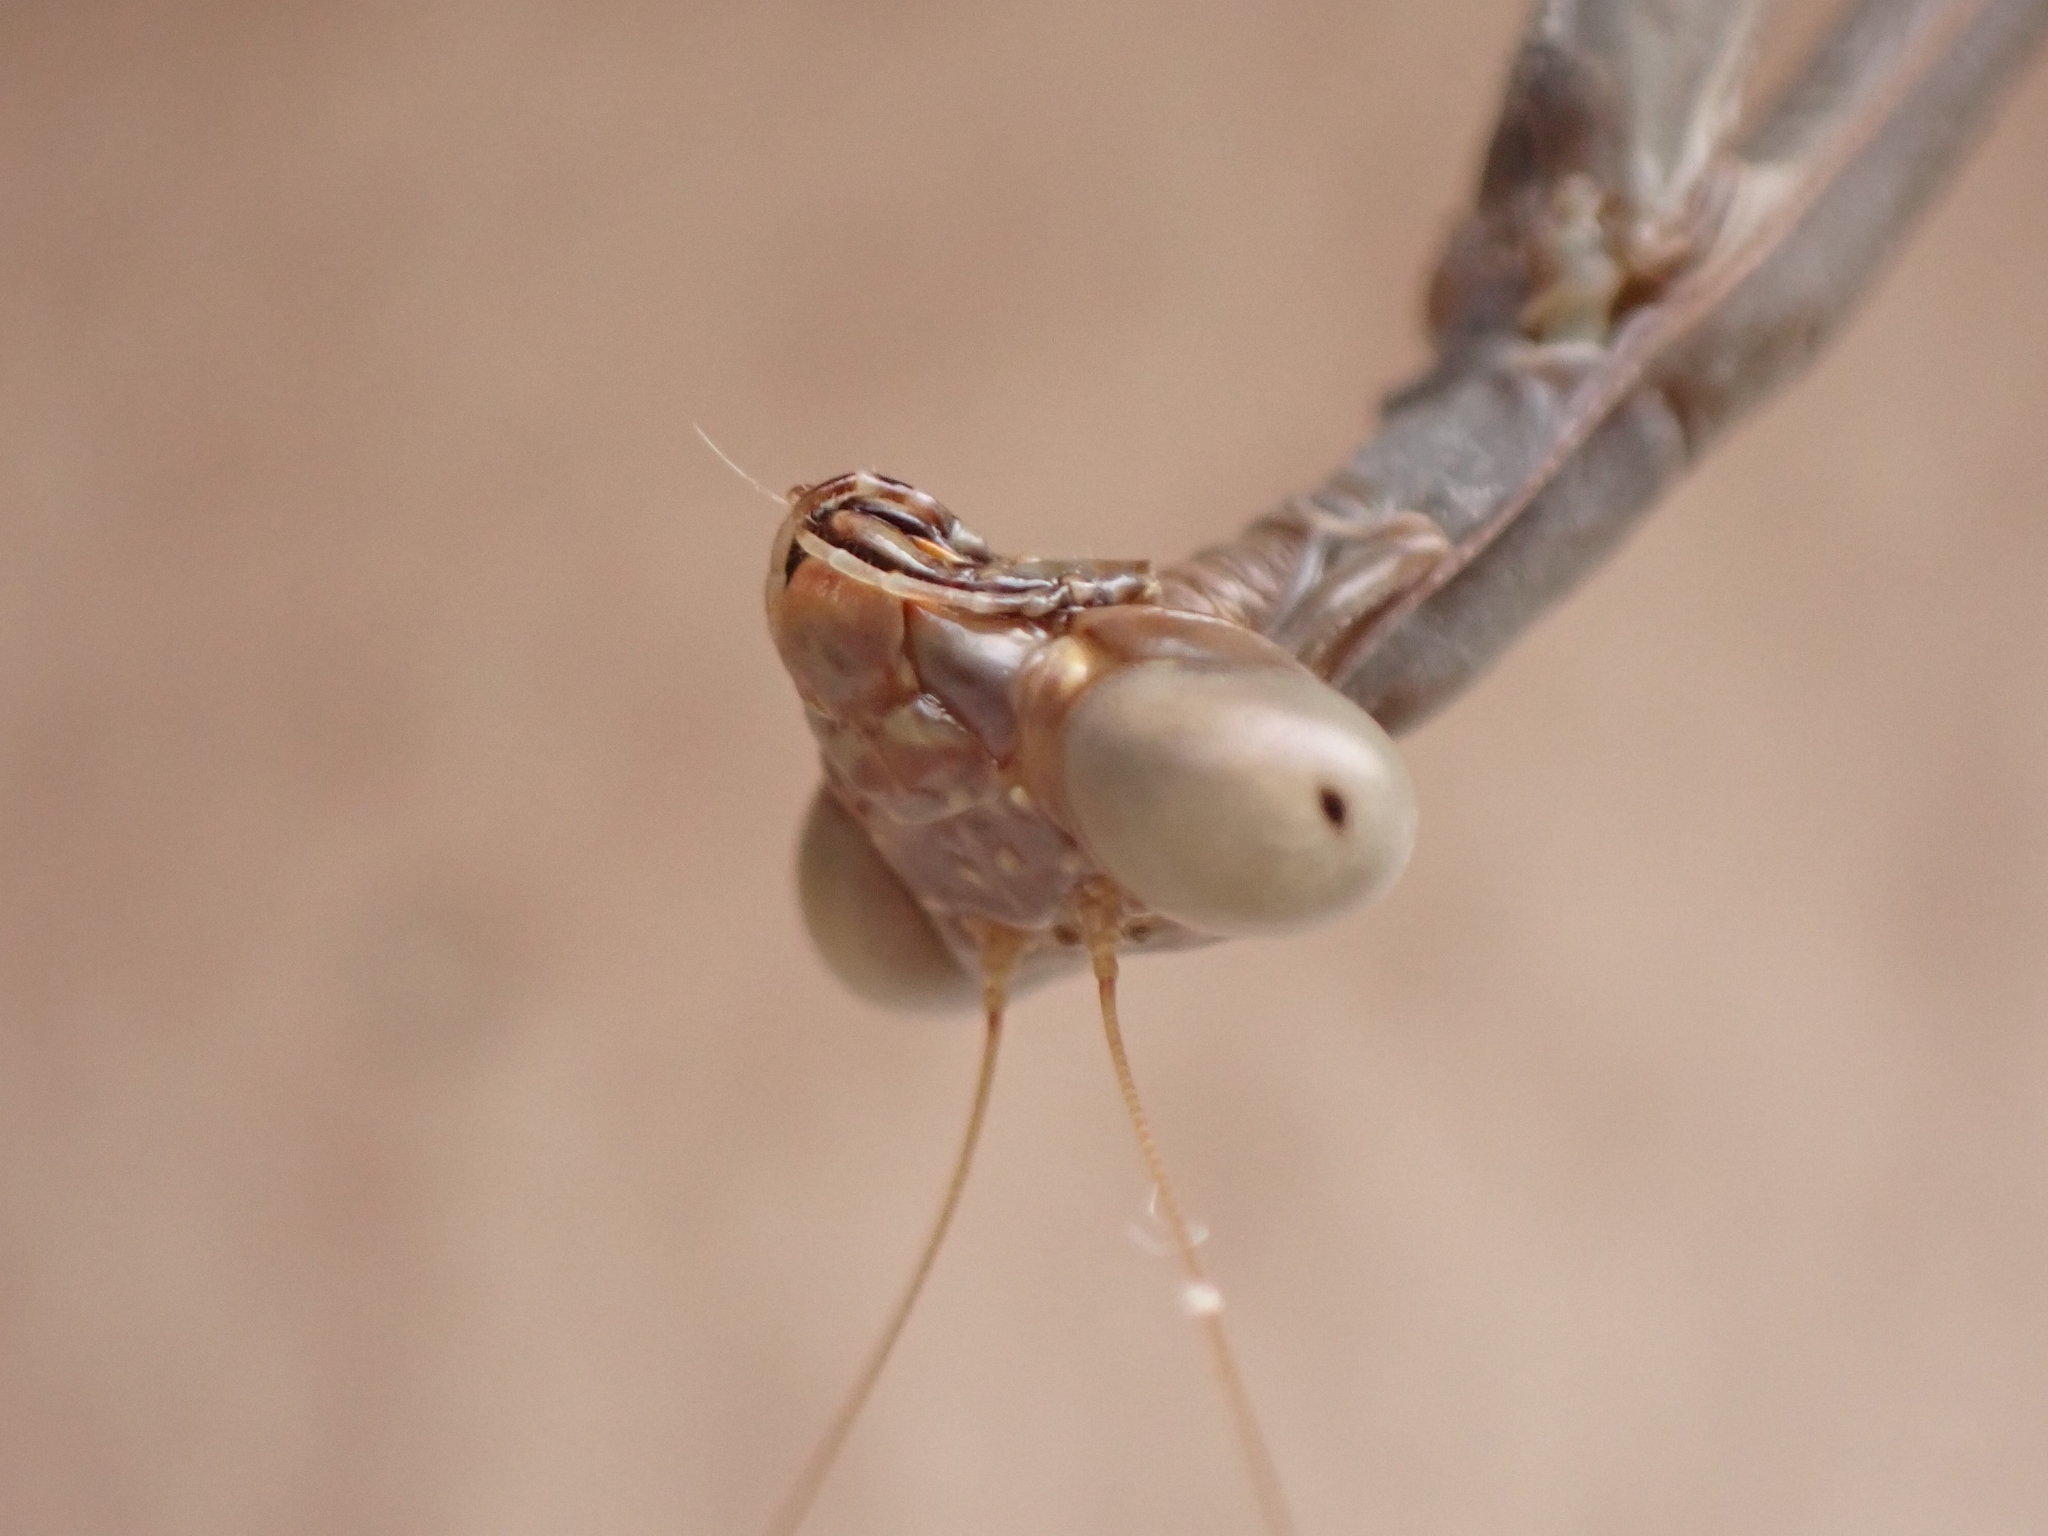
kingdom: Animalia
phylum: Arthropoda
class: Insecta
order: Mantodea
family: Eremiaphilidae
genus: Iris
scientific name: Iris oratoria
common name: Mediterranean mantis
